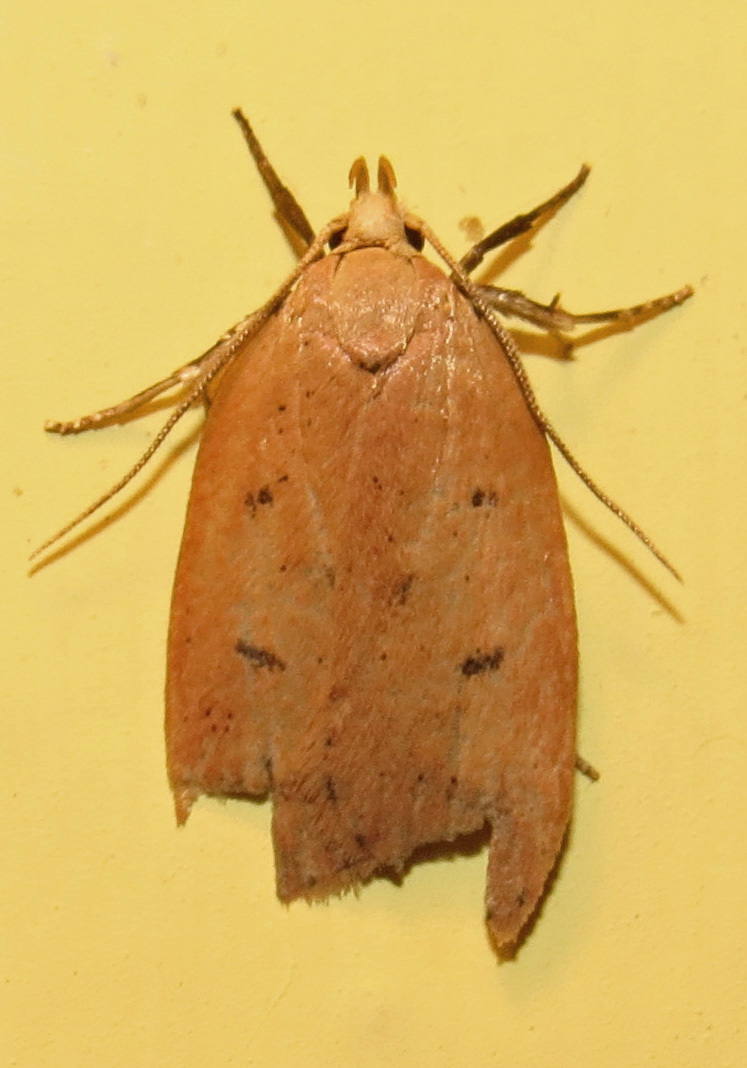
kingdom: Animalia
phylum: Arthropoda
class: Insecta
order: Lepidoptera
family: Peleopodidae
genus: Machimia
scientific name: Machimia tentoriferella
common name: Gold-striped leaftier moth
